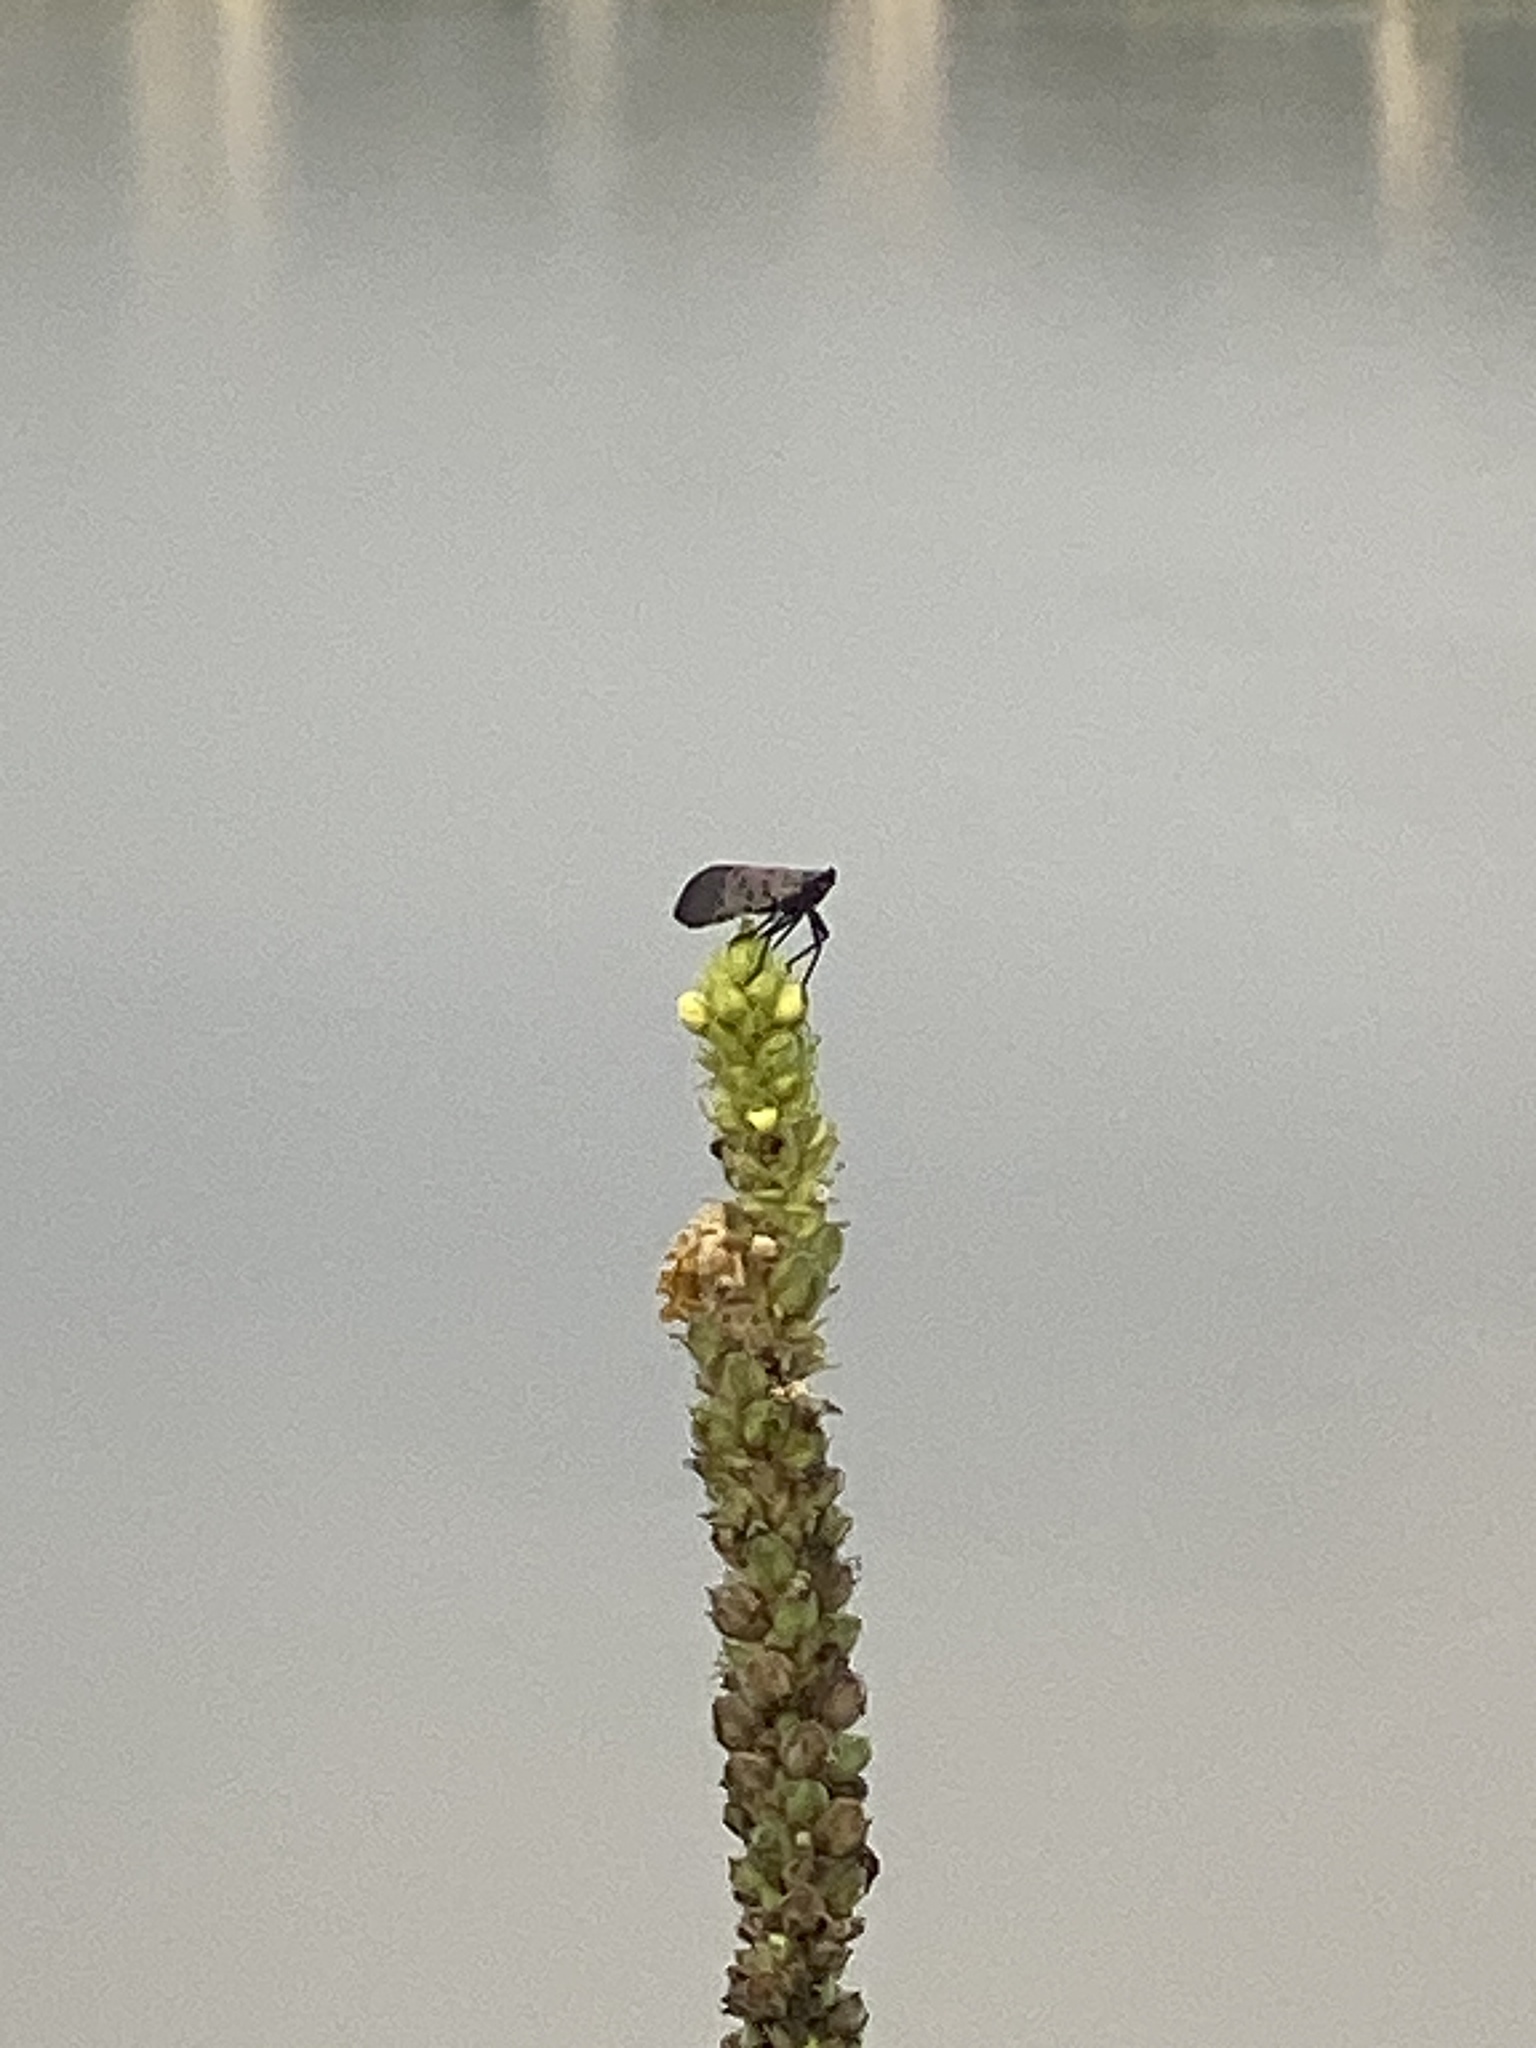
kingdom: Animalia
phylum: Arthropoda
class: Insecta
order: Hemiptera
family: Fulgoridae
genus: Lycorma
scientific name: Lycorma delicatula
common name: Spotted lanternfly
